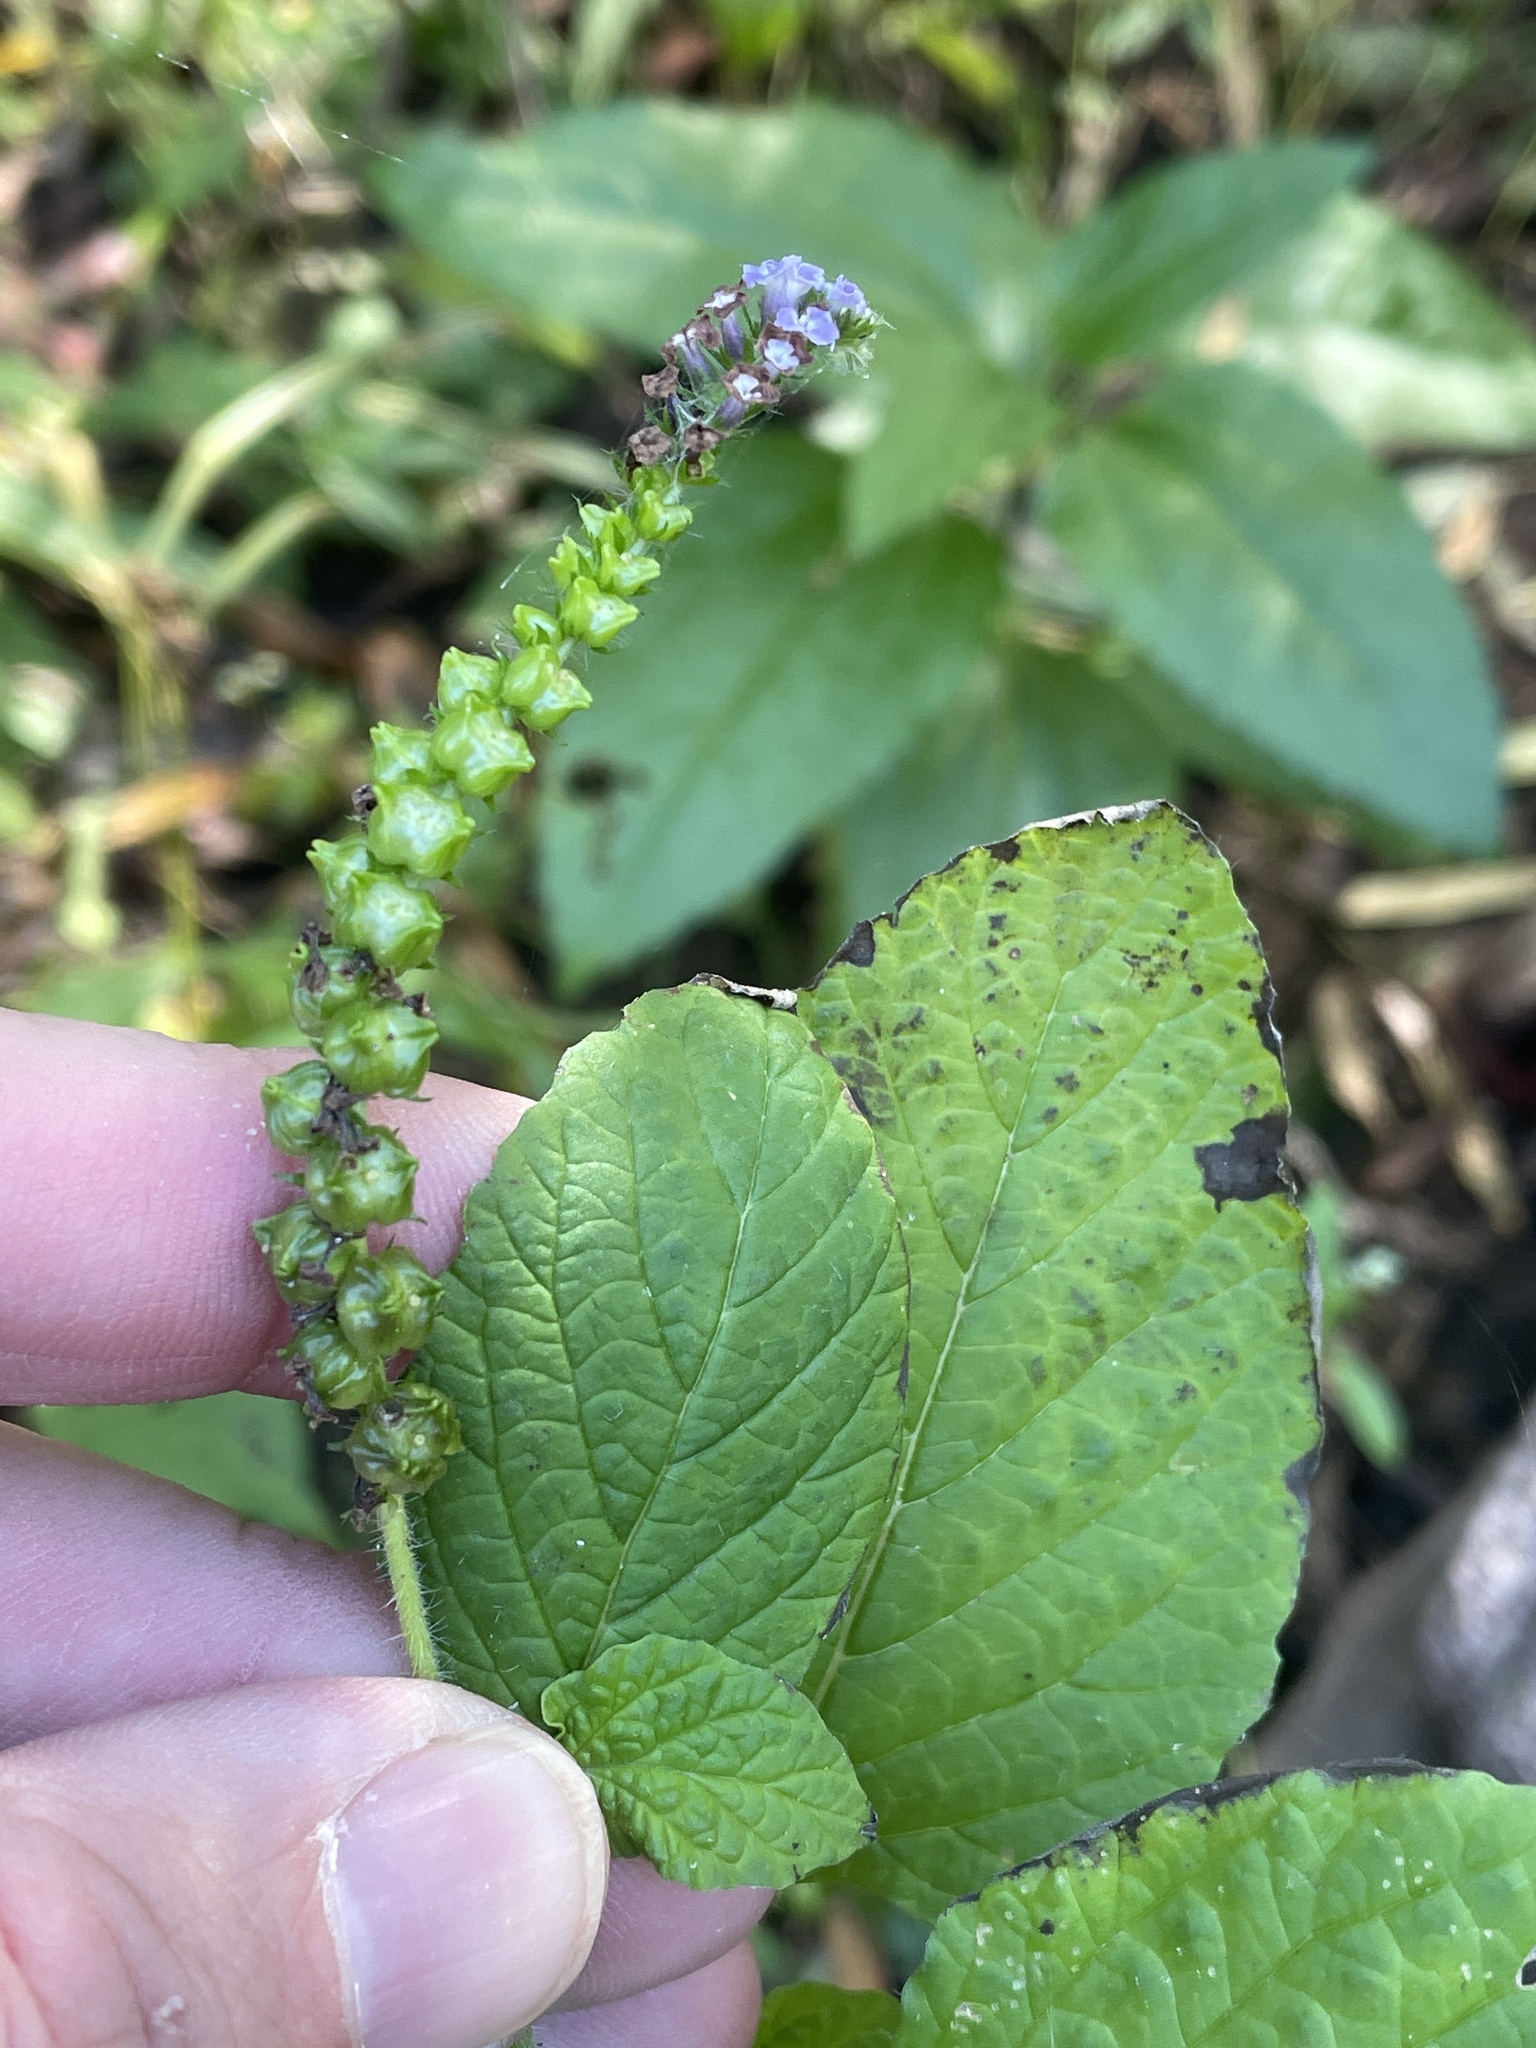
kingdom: Plantae
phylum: Tracheophyta
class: Magnoliopsida
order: Boraginales
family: Heliotropiaceae
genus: Heliotropium
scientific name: Heliotropium indicum
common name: Indian heliotrope
